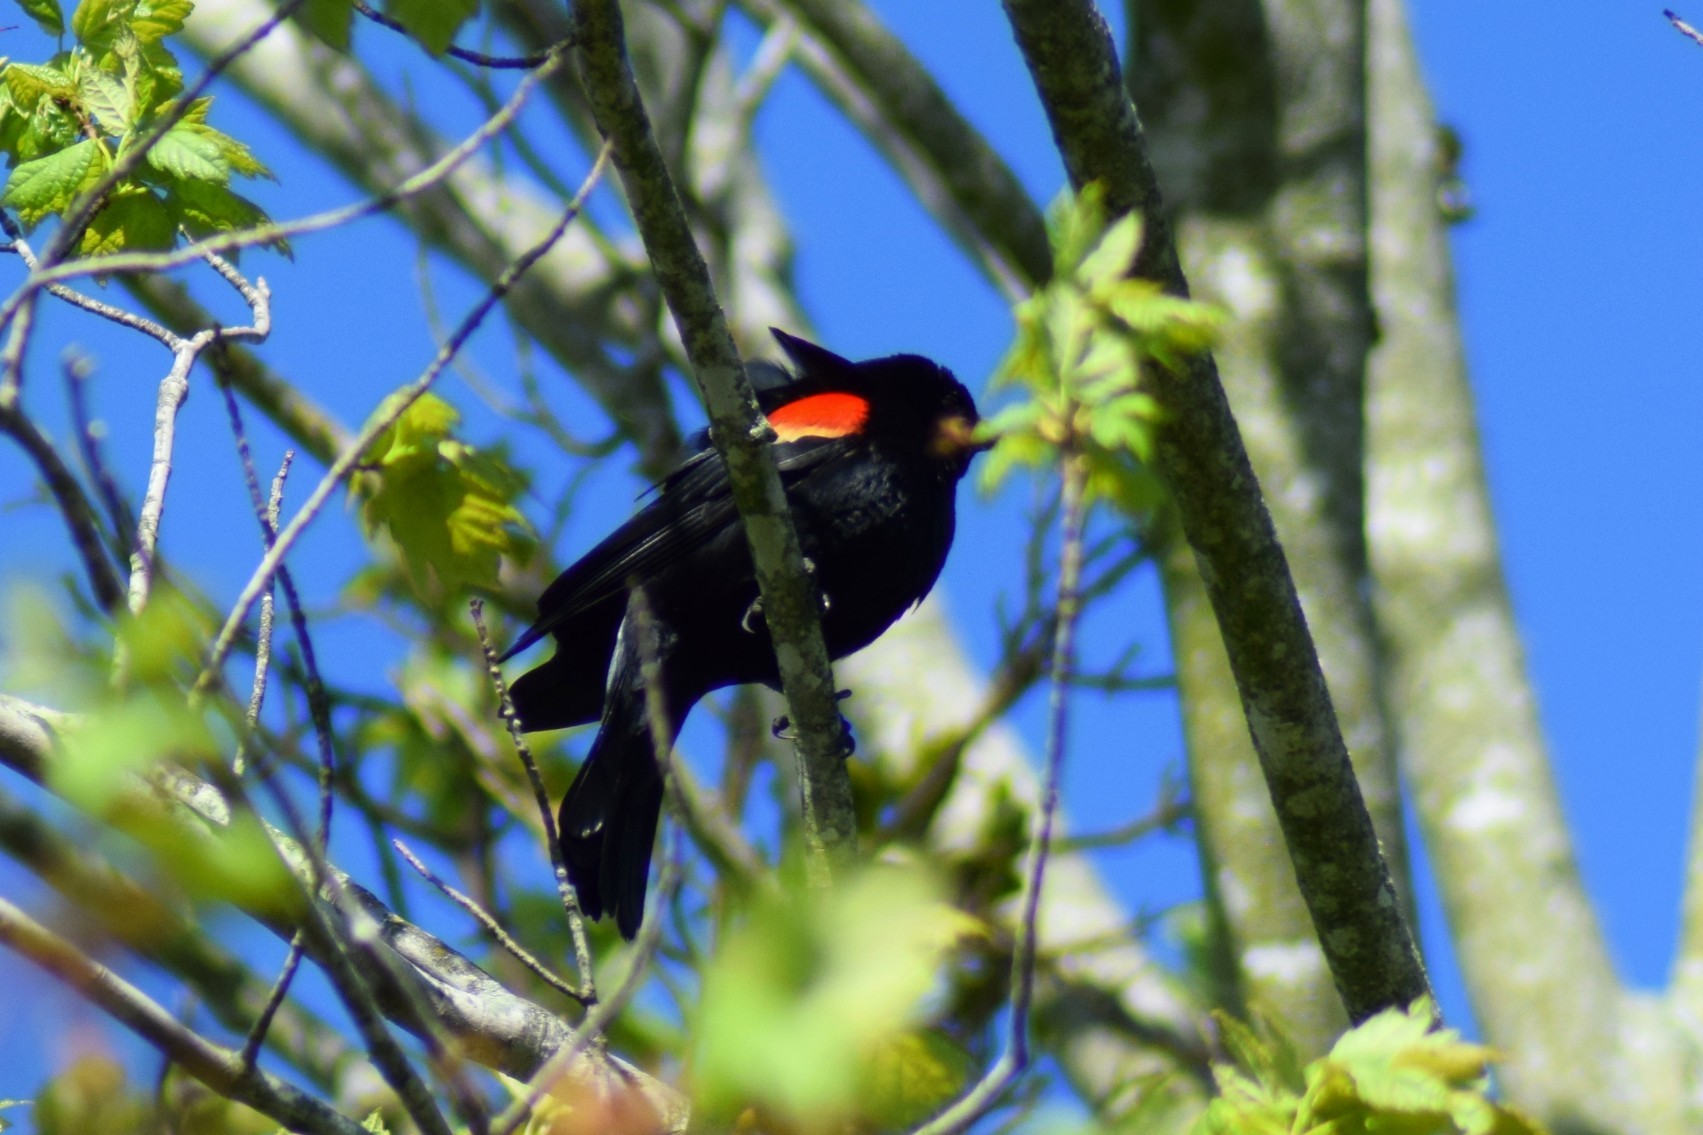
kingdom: Animalia
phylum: Chordata
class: Aves
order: Passeriformes
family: Icteridae
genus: Agelaius
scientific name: Agelaius phoeniceus
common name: Red-winged blackbird
